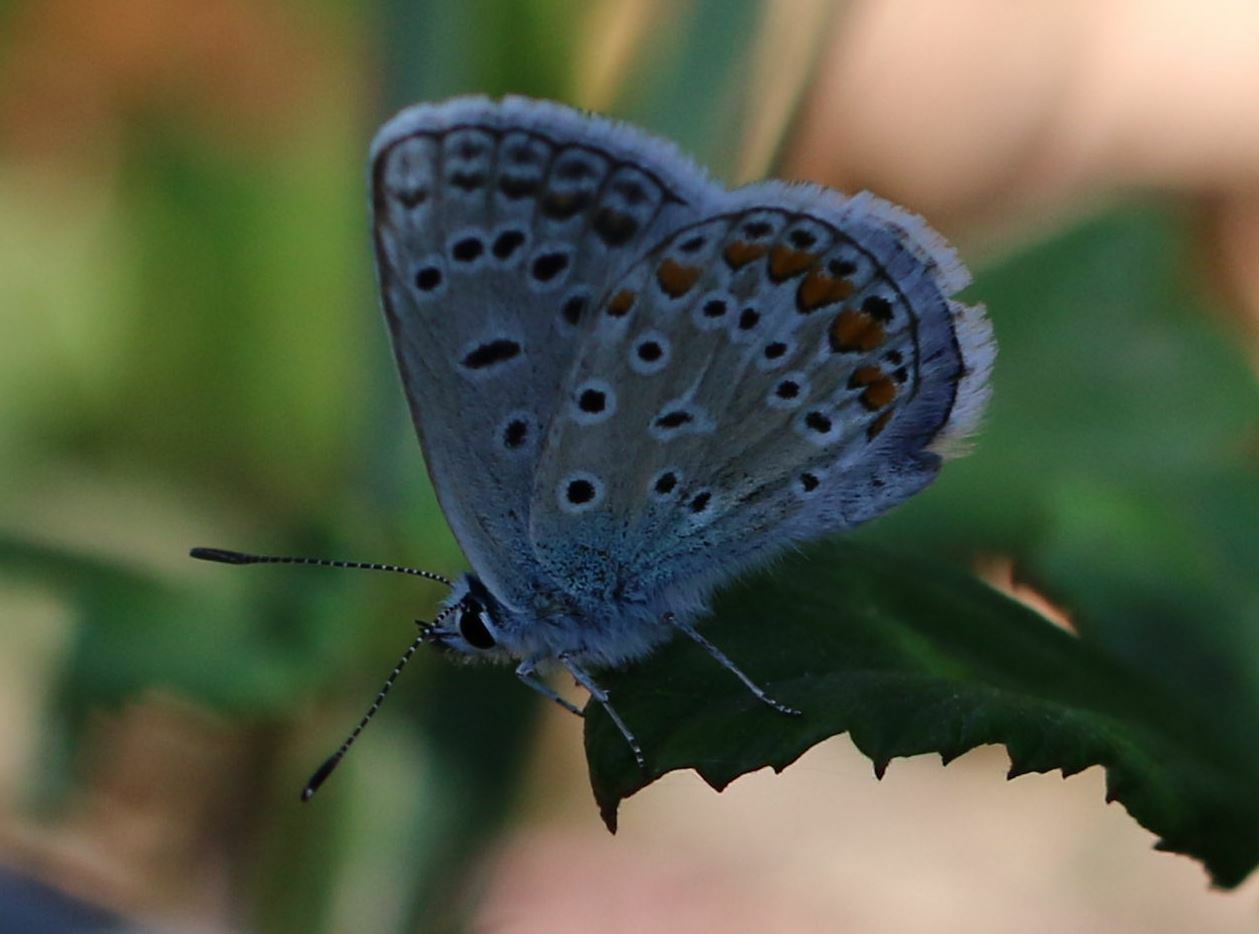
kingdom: Animalia
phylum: Arthropoda
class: Insecta
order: Lepidoptera
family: Lycaenidae
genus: Polyommatus
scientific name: Polyommatus icarus
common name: Common blue
